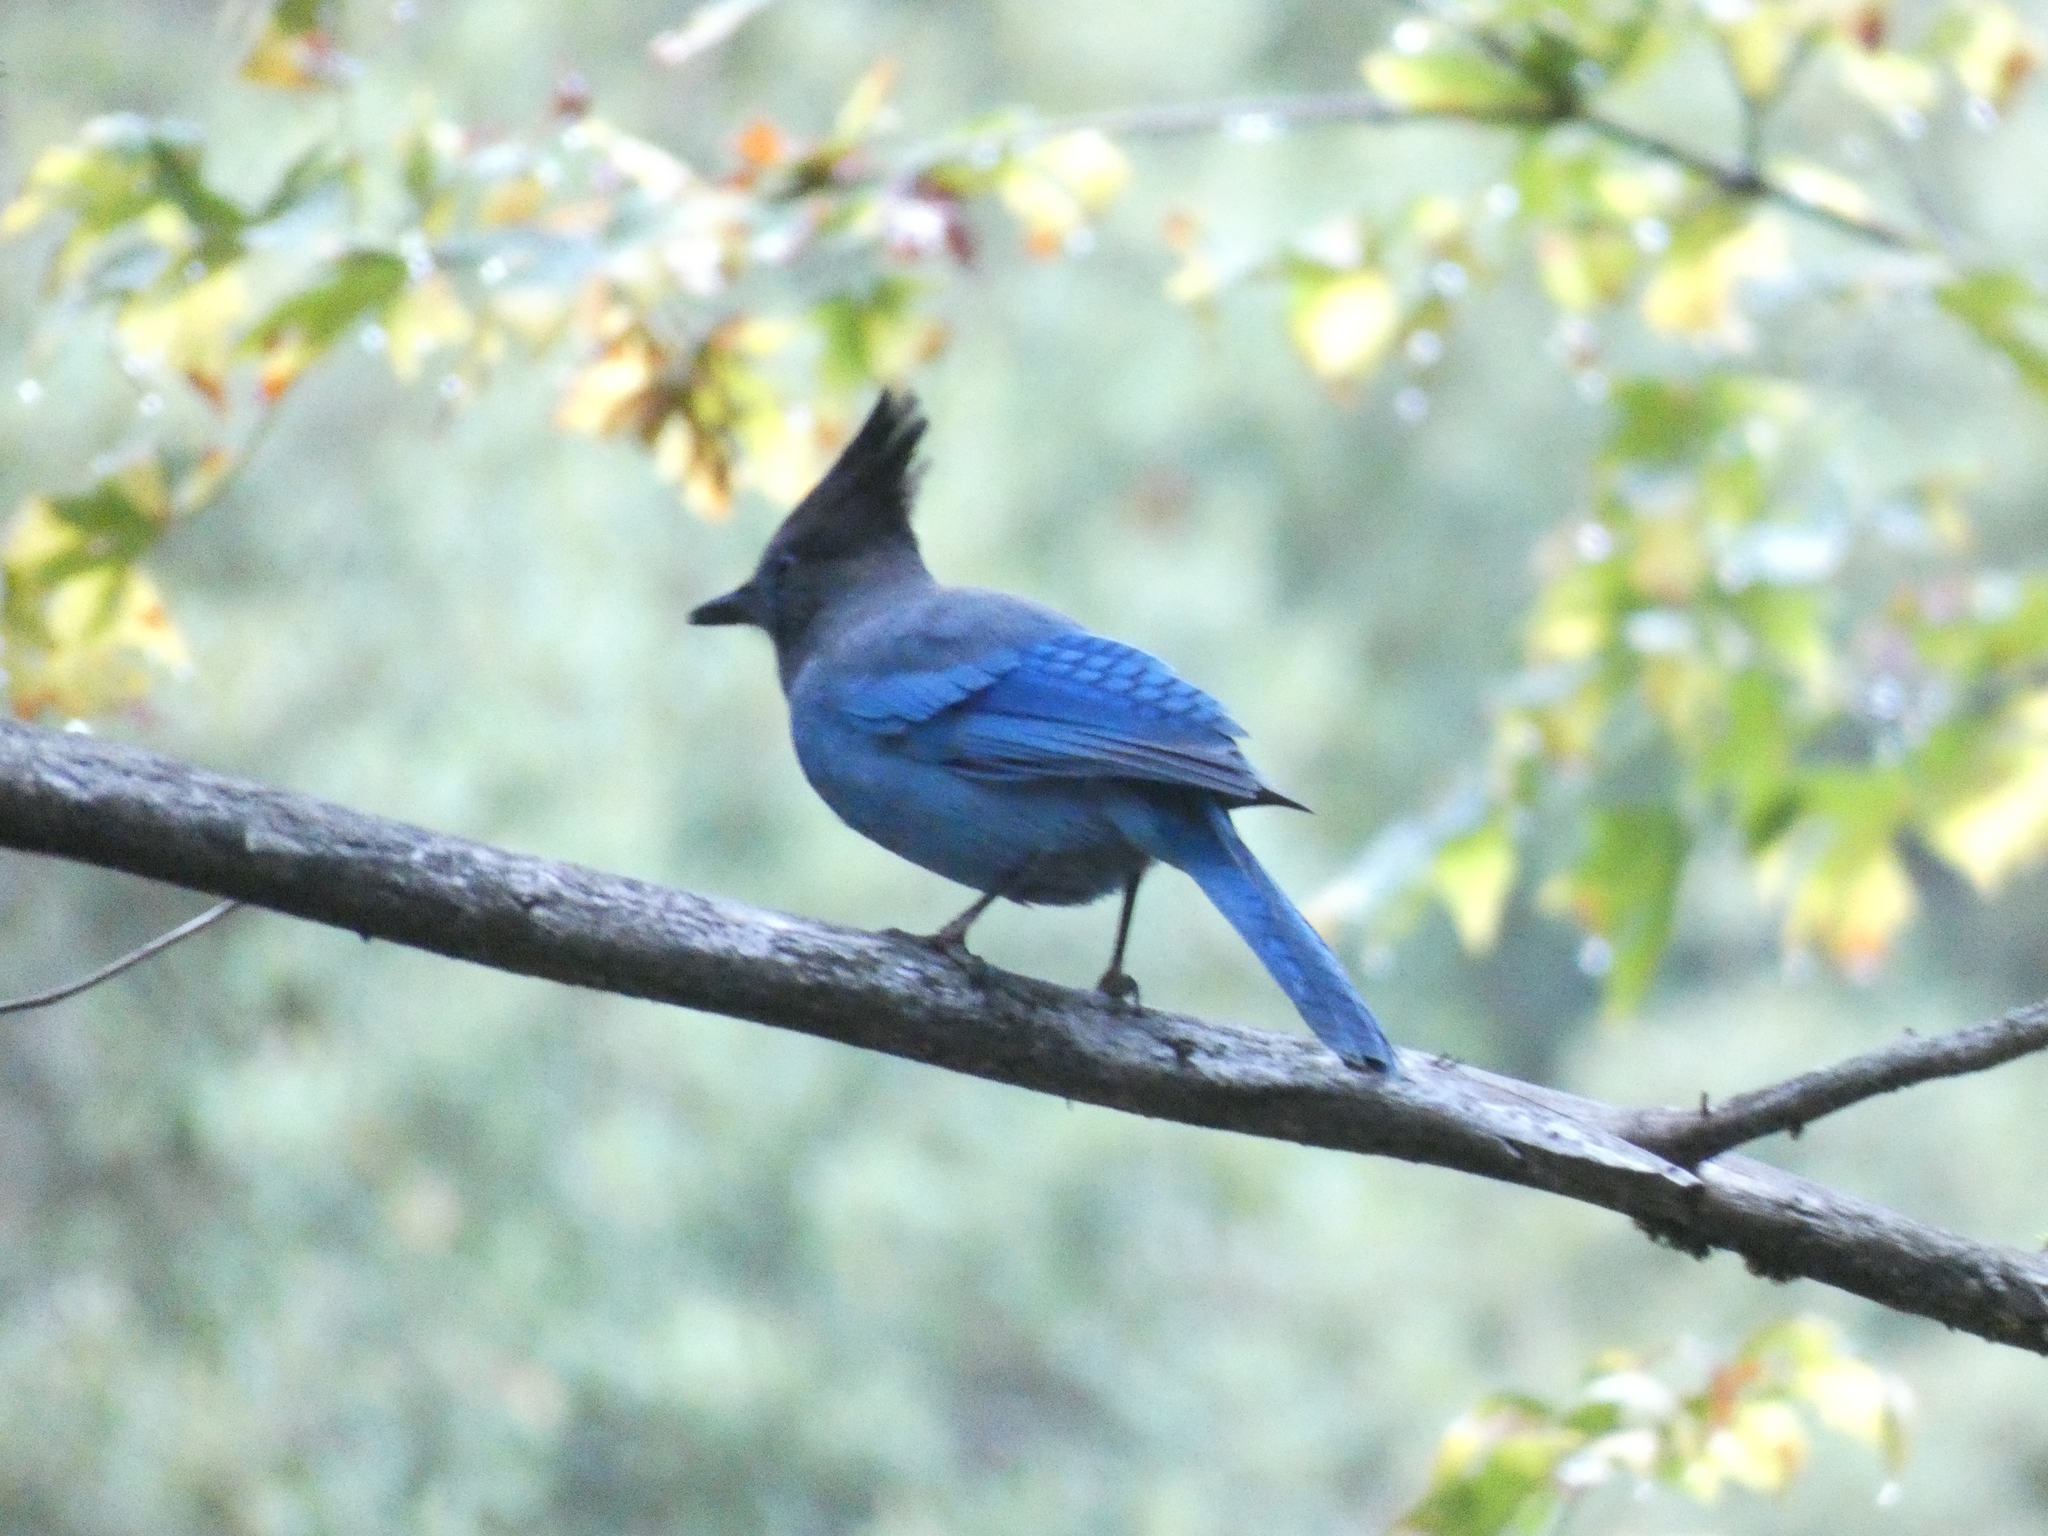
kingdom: Animalia
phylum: Chordata
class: Aves
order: Passeriformes
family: Corvidae
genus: Cyanocitta
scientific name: Cyanocitta stelleri
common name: Steller's jay
